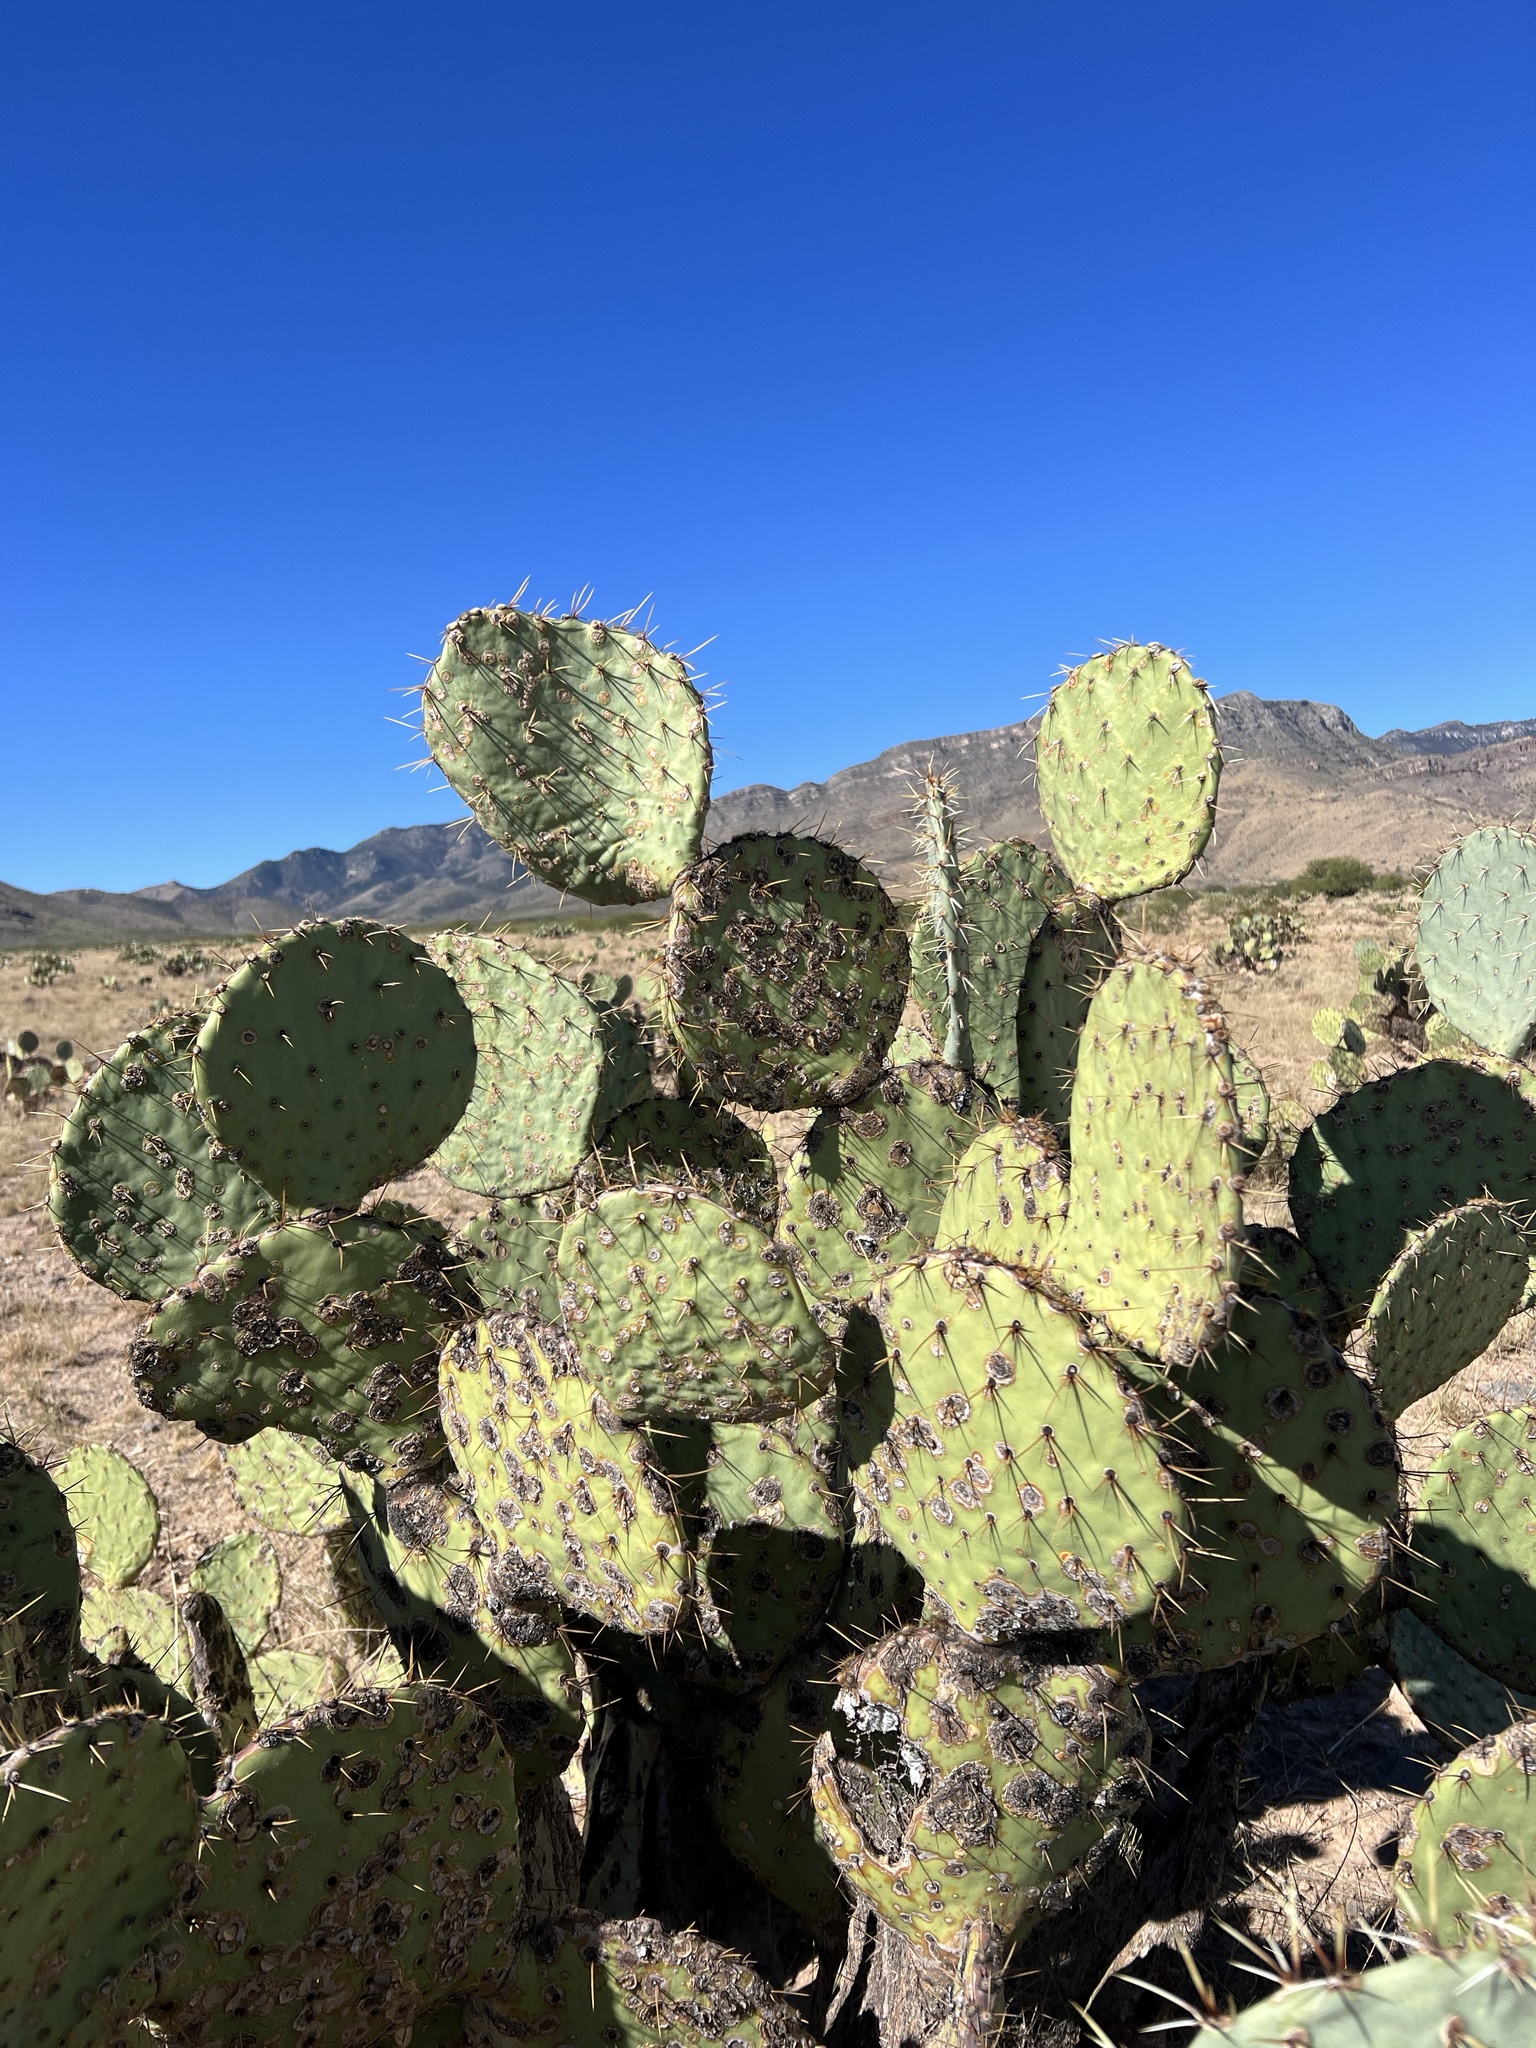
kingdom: Plantae
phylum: Tracheophyta
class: Magnoliopsida
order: Caryophyllales
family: Cactaceae
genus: Opuntia
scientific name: Opuntia engelmannii
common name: Cactus-apple
